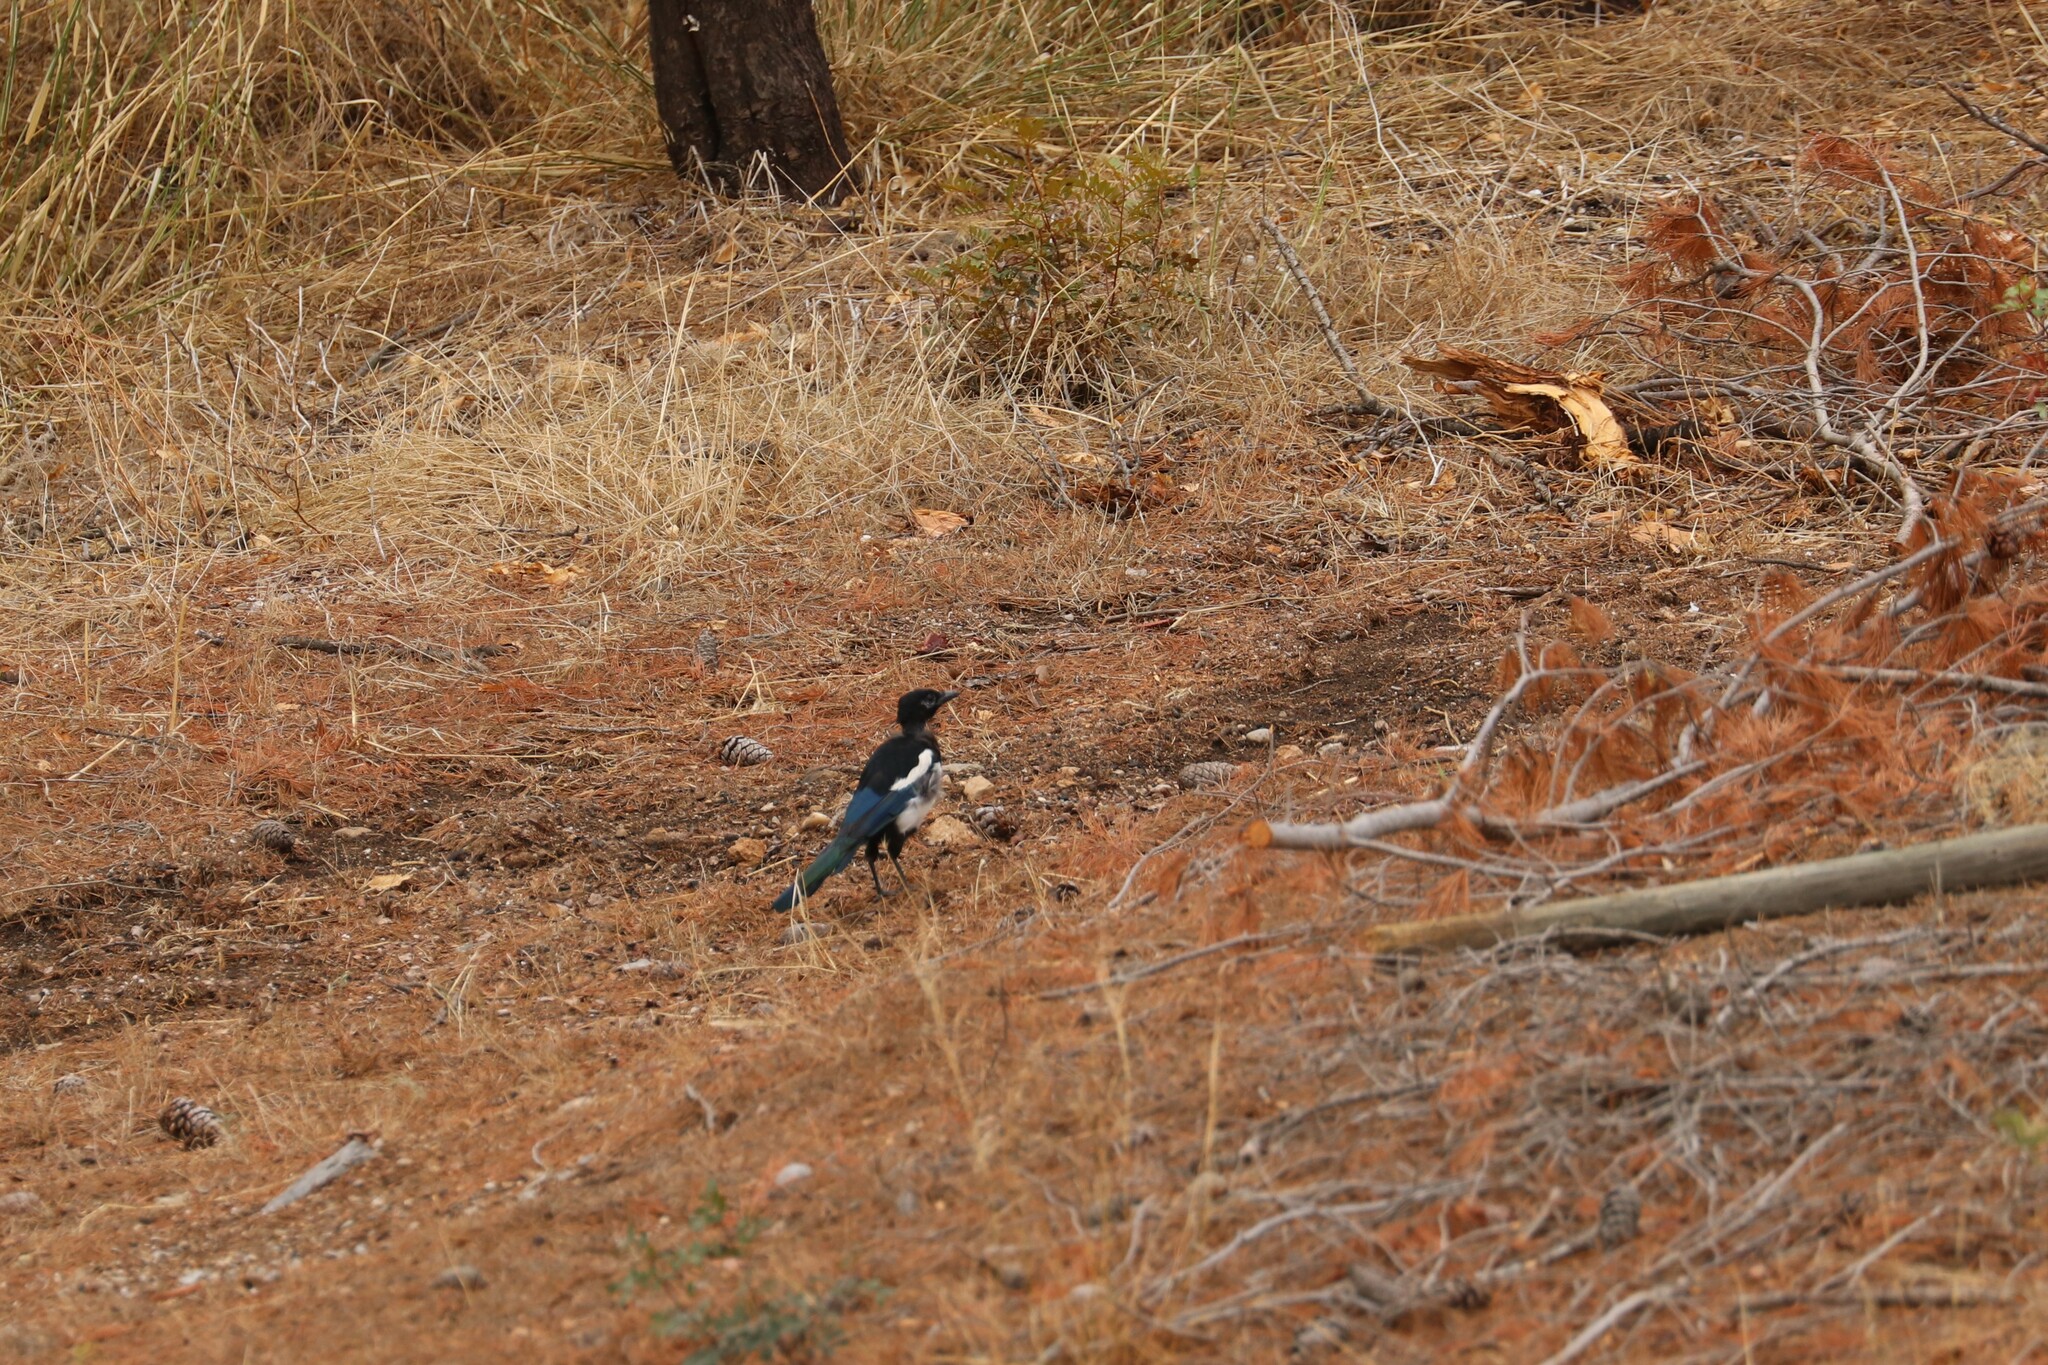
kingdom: Animalia
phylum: Chordata
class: Aves
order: Passeriformes
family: Corvidae
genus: Pica
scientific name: Pica pica
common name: Eurasian magpie
